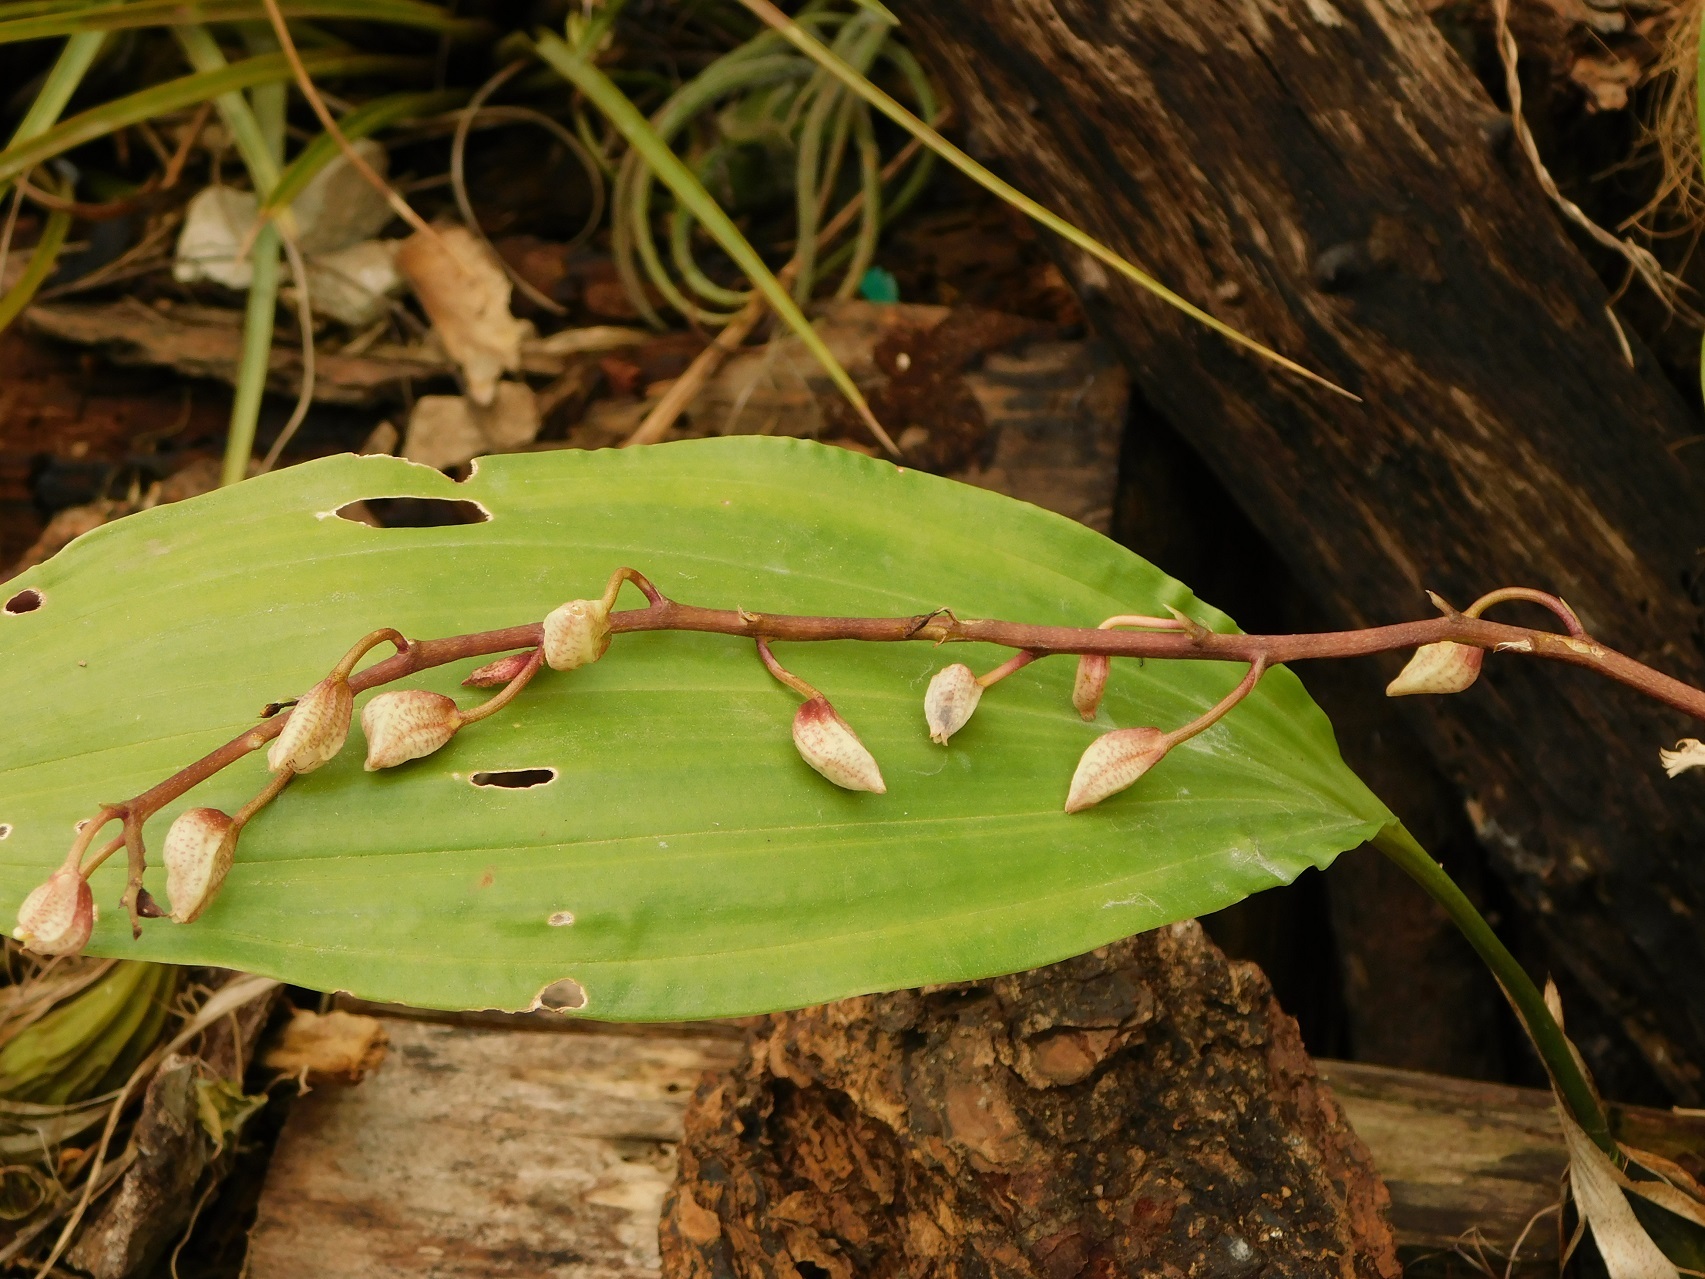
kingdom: Plantae
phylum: Tracheophyta
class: Liliopsida
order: Asparagales
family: Orchidaceae
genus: Gongora
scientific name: Gongora truncata
